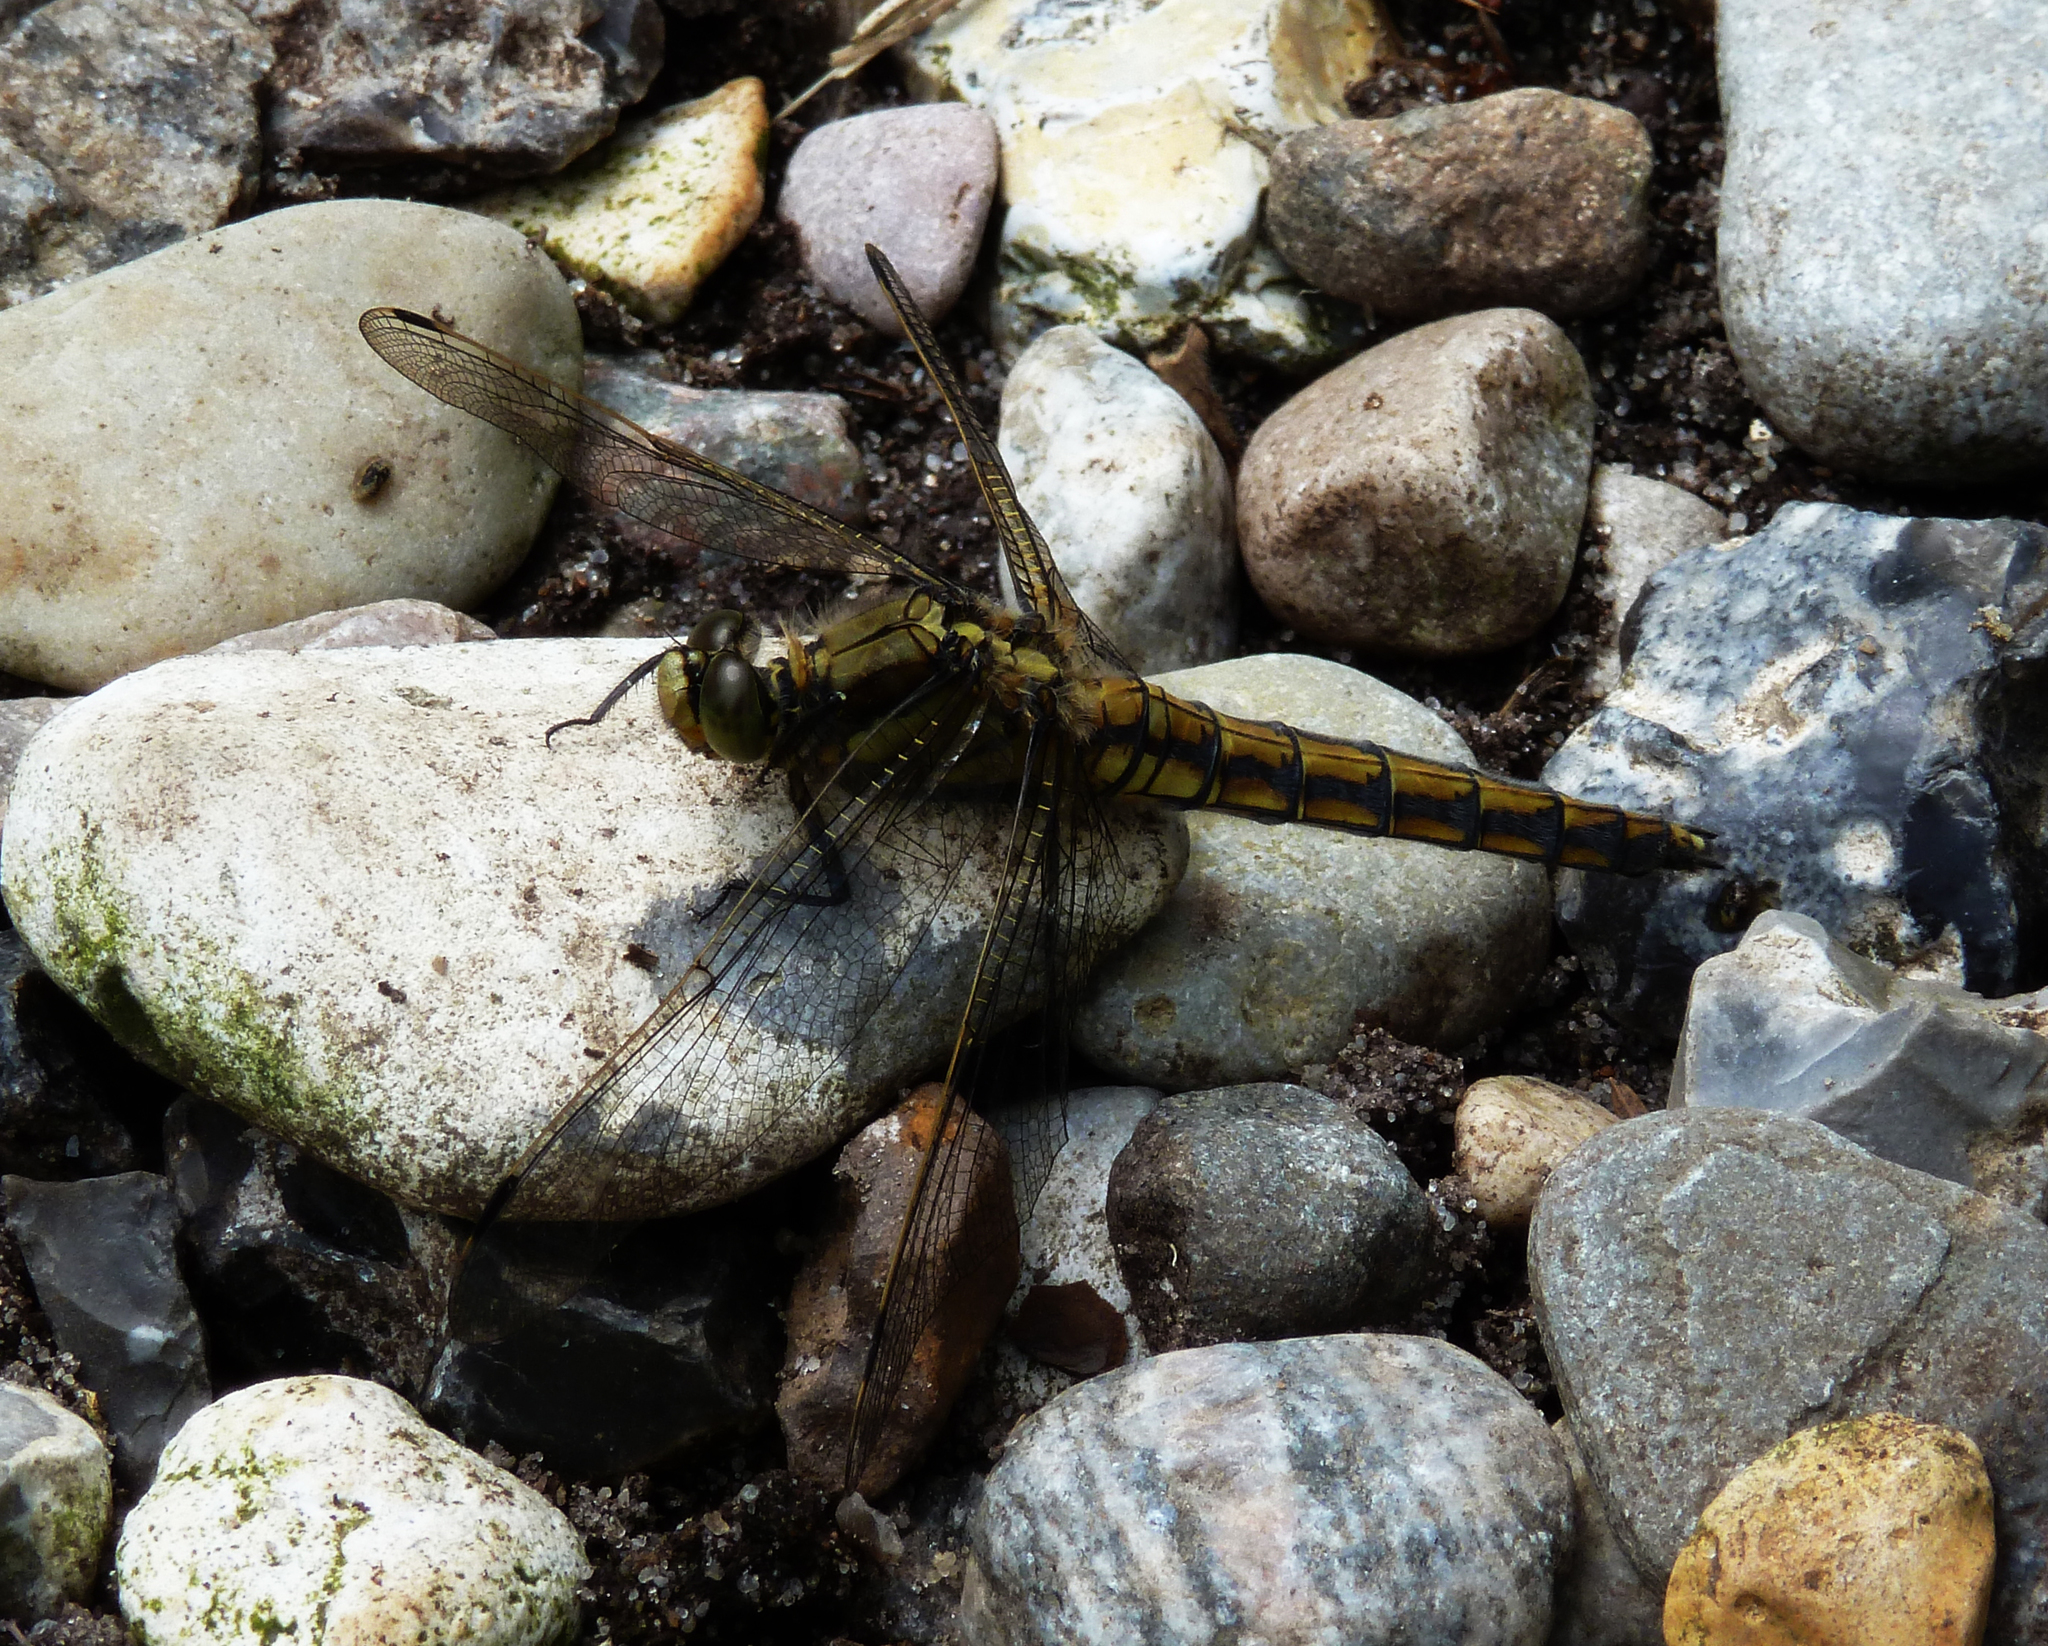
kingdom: Animalia
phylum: Arthropoda
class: Insecta
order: Odonata
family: Libellulidae
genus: Orthetrum
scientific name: Orthetrum cancellatum
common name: Black-tailed skimmer
